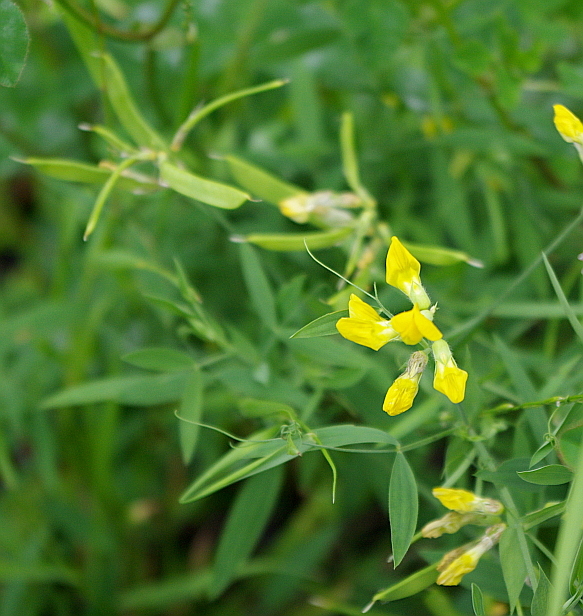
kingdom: Plantae
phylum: Tracheophyta
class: Magnoliopsida
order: Fabales
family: Fabaceae
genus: Lathyrus
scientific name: Lathyrus pratensis
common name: Meadow vetchling
